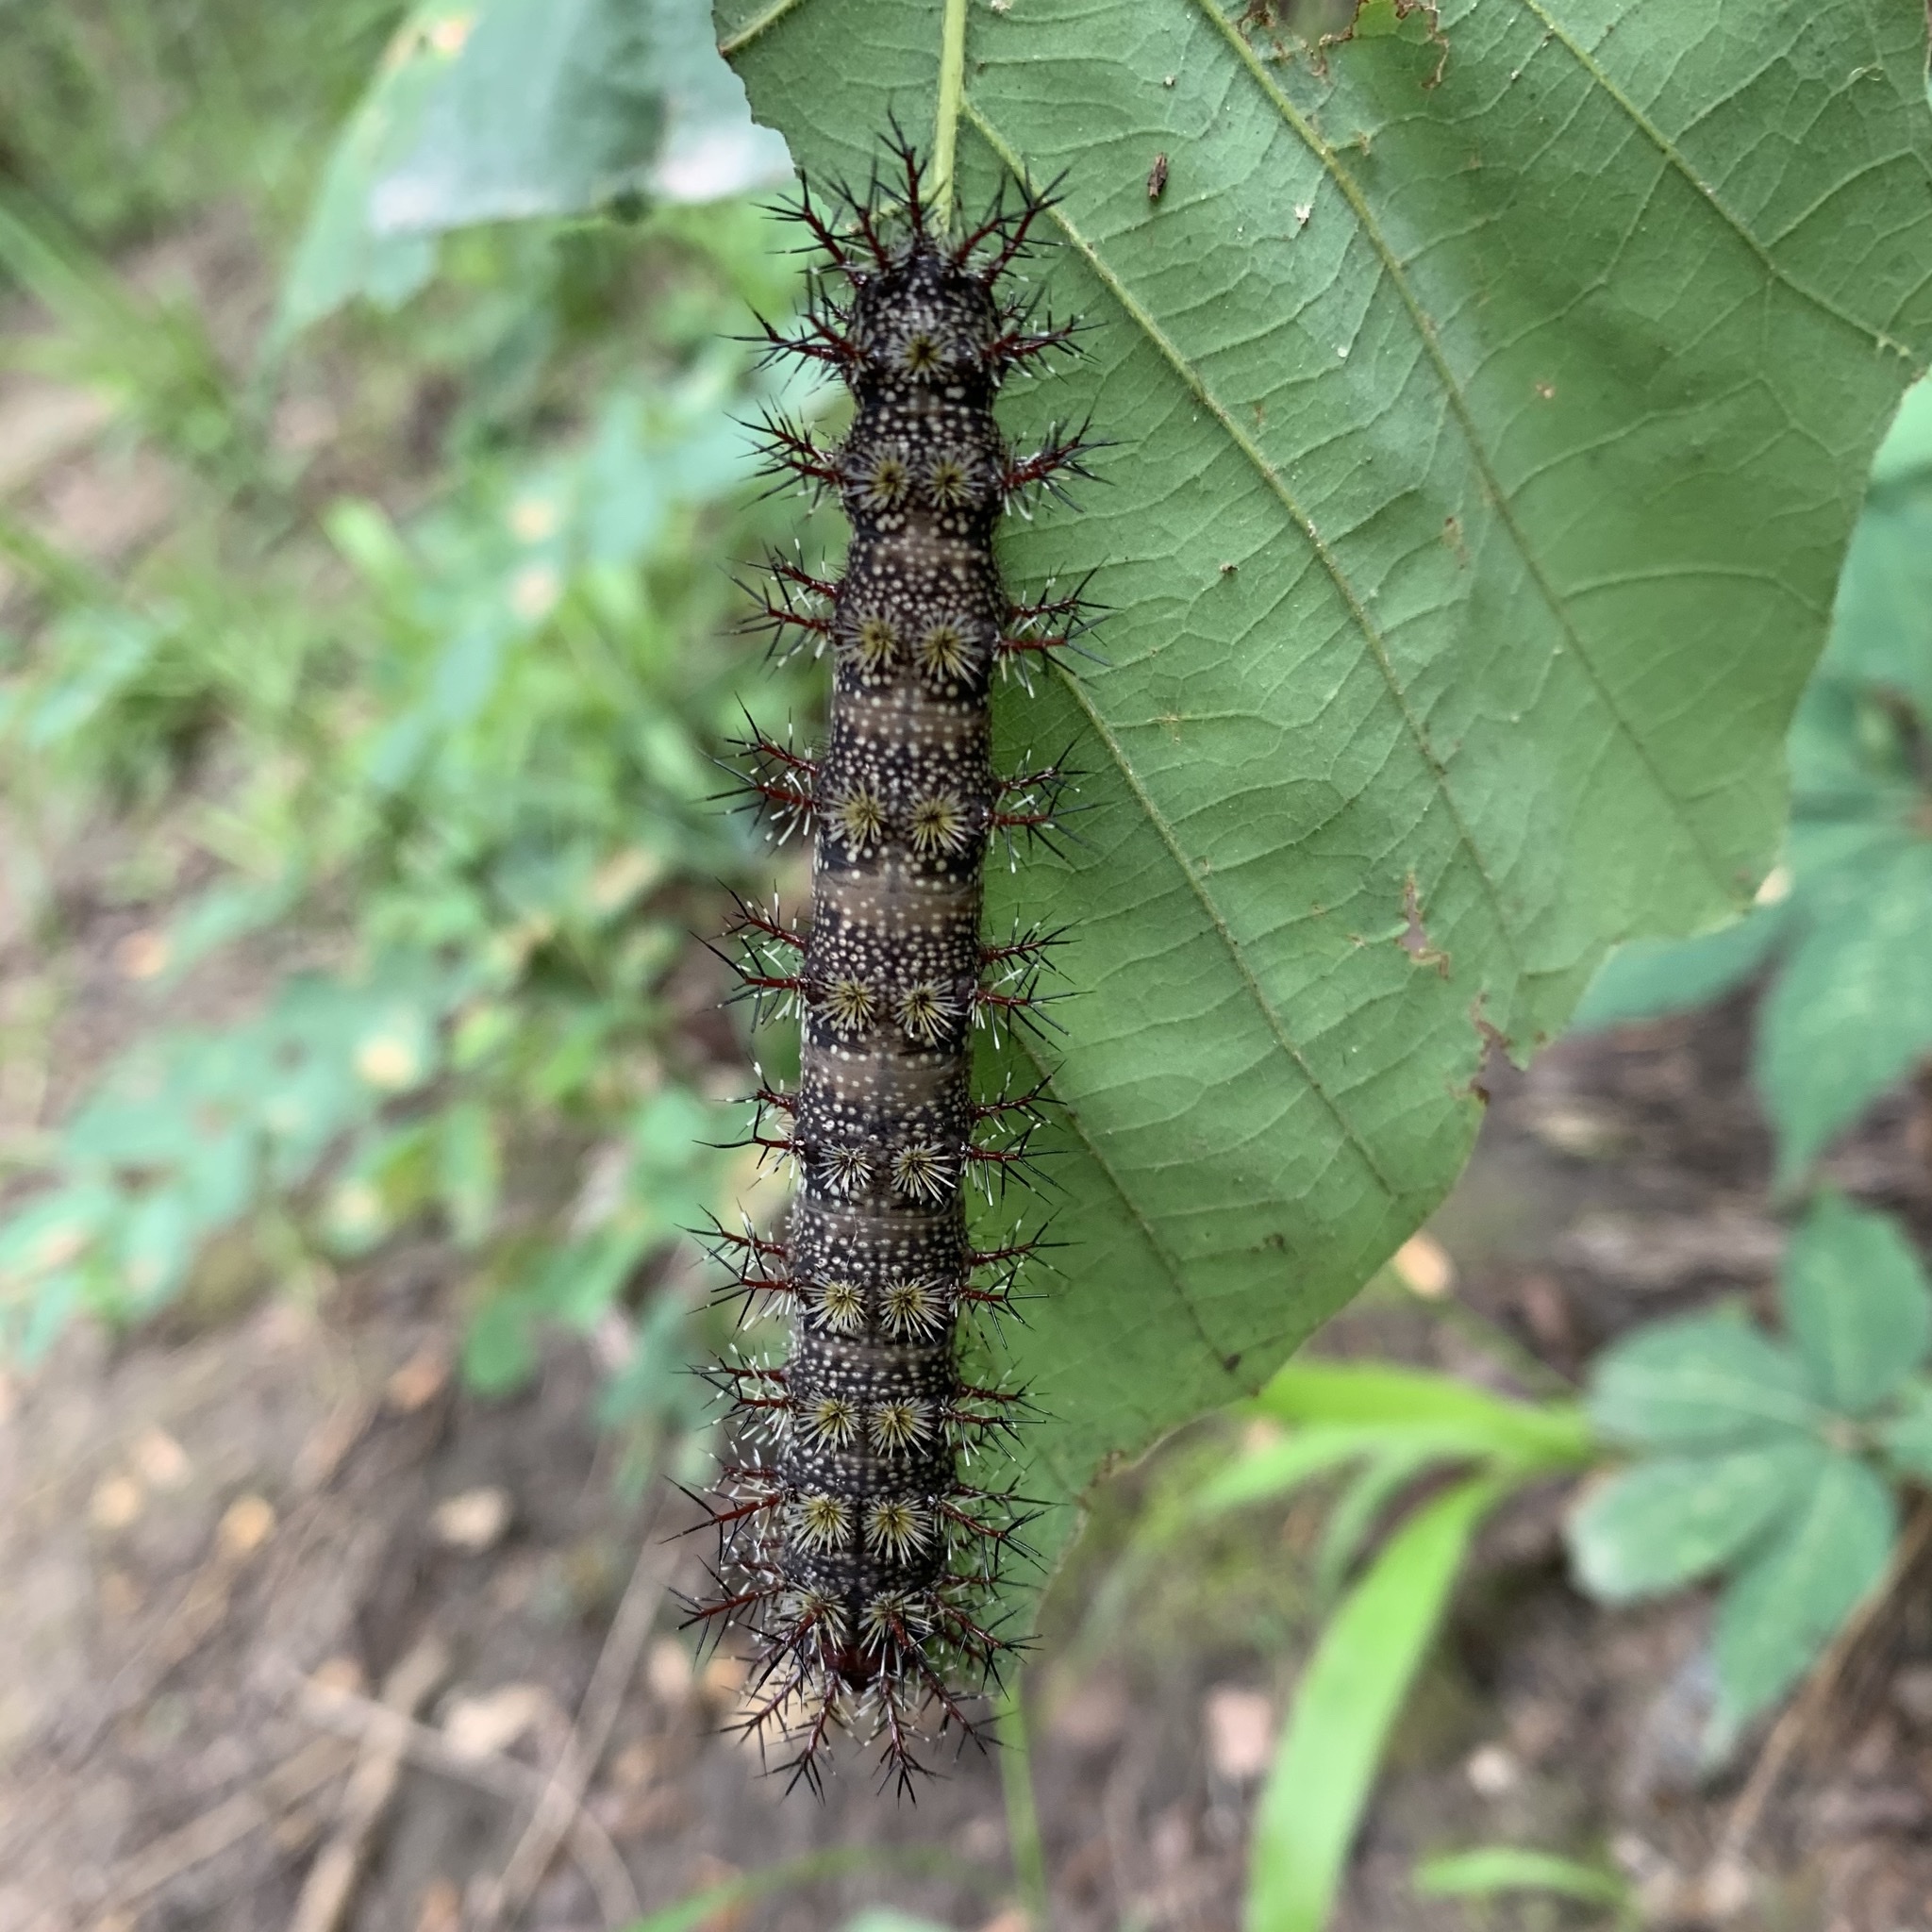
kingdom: Animalia
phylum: Arthropoda
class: Insecta
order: Lepidoptera
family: Saturniidae
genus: Hemileuca
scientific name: Hemileuca maia
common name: Eastern buckmoth
